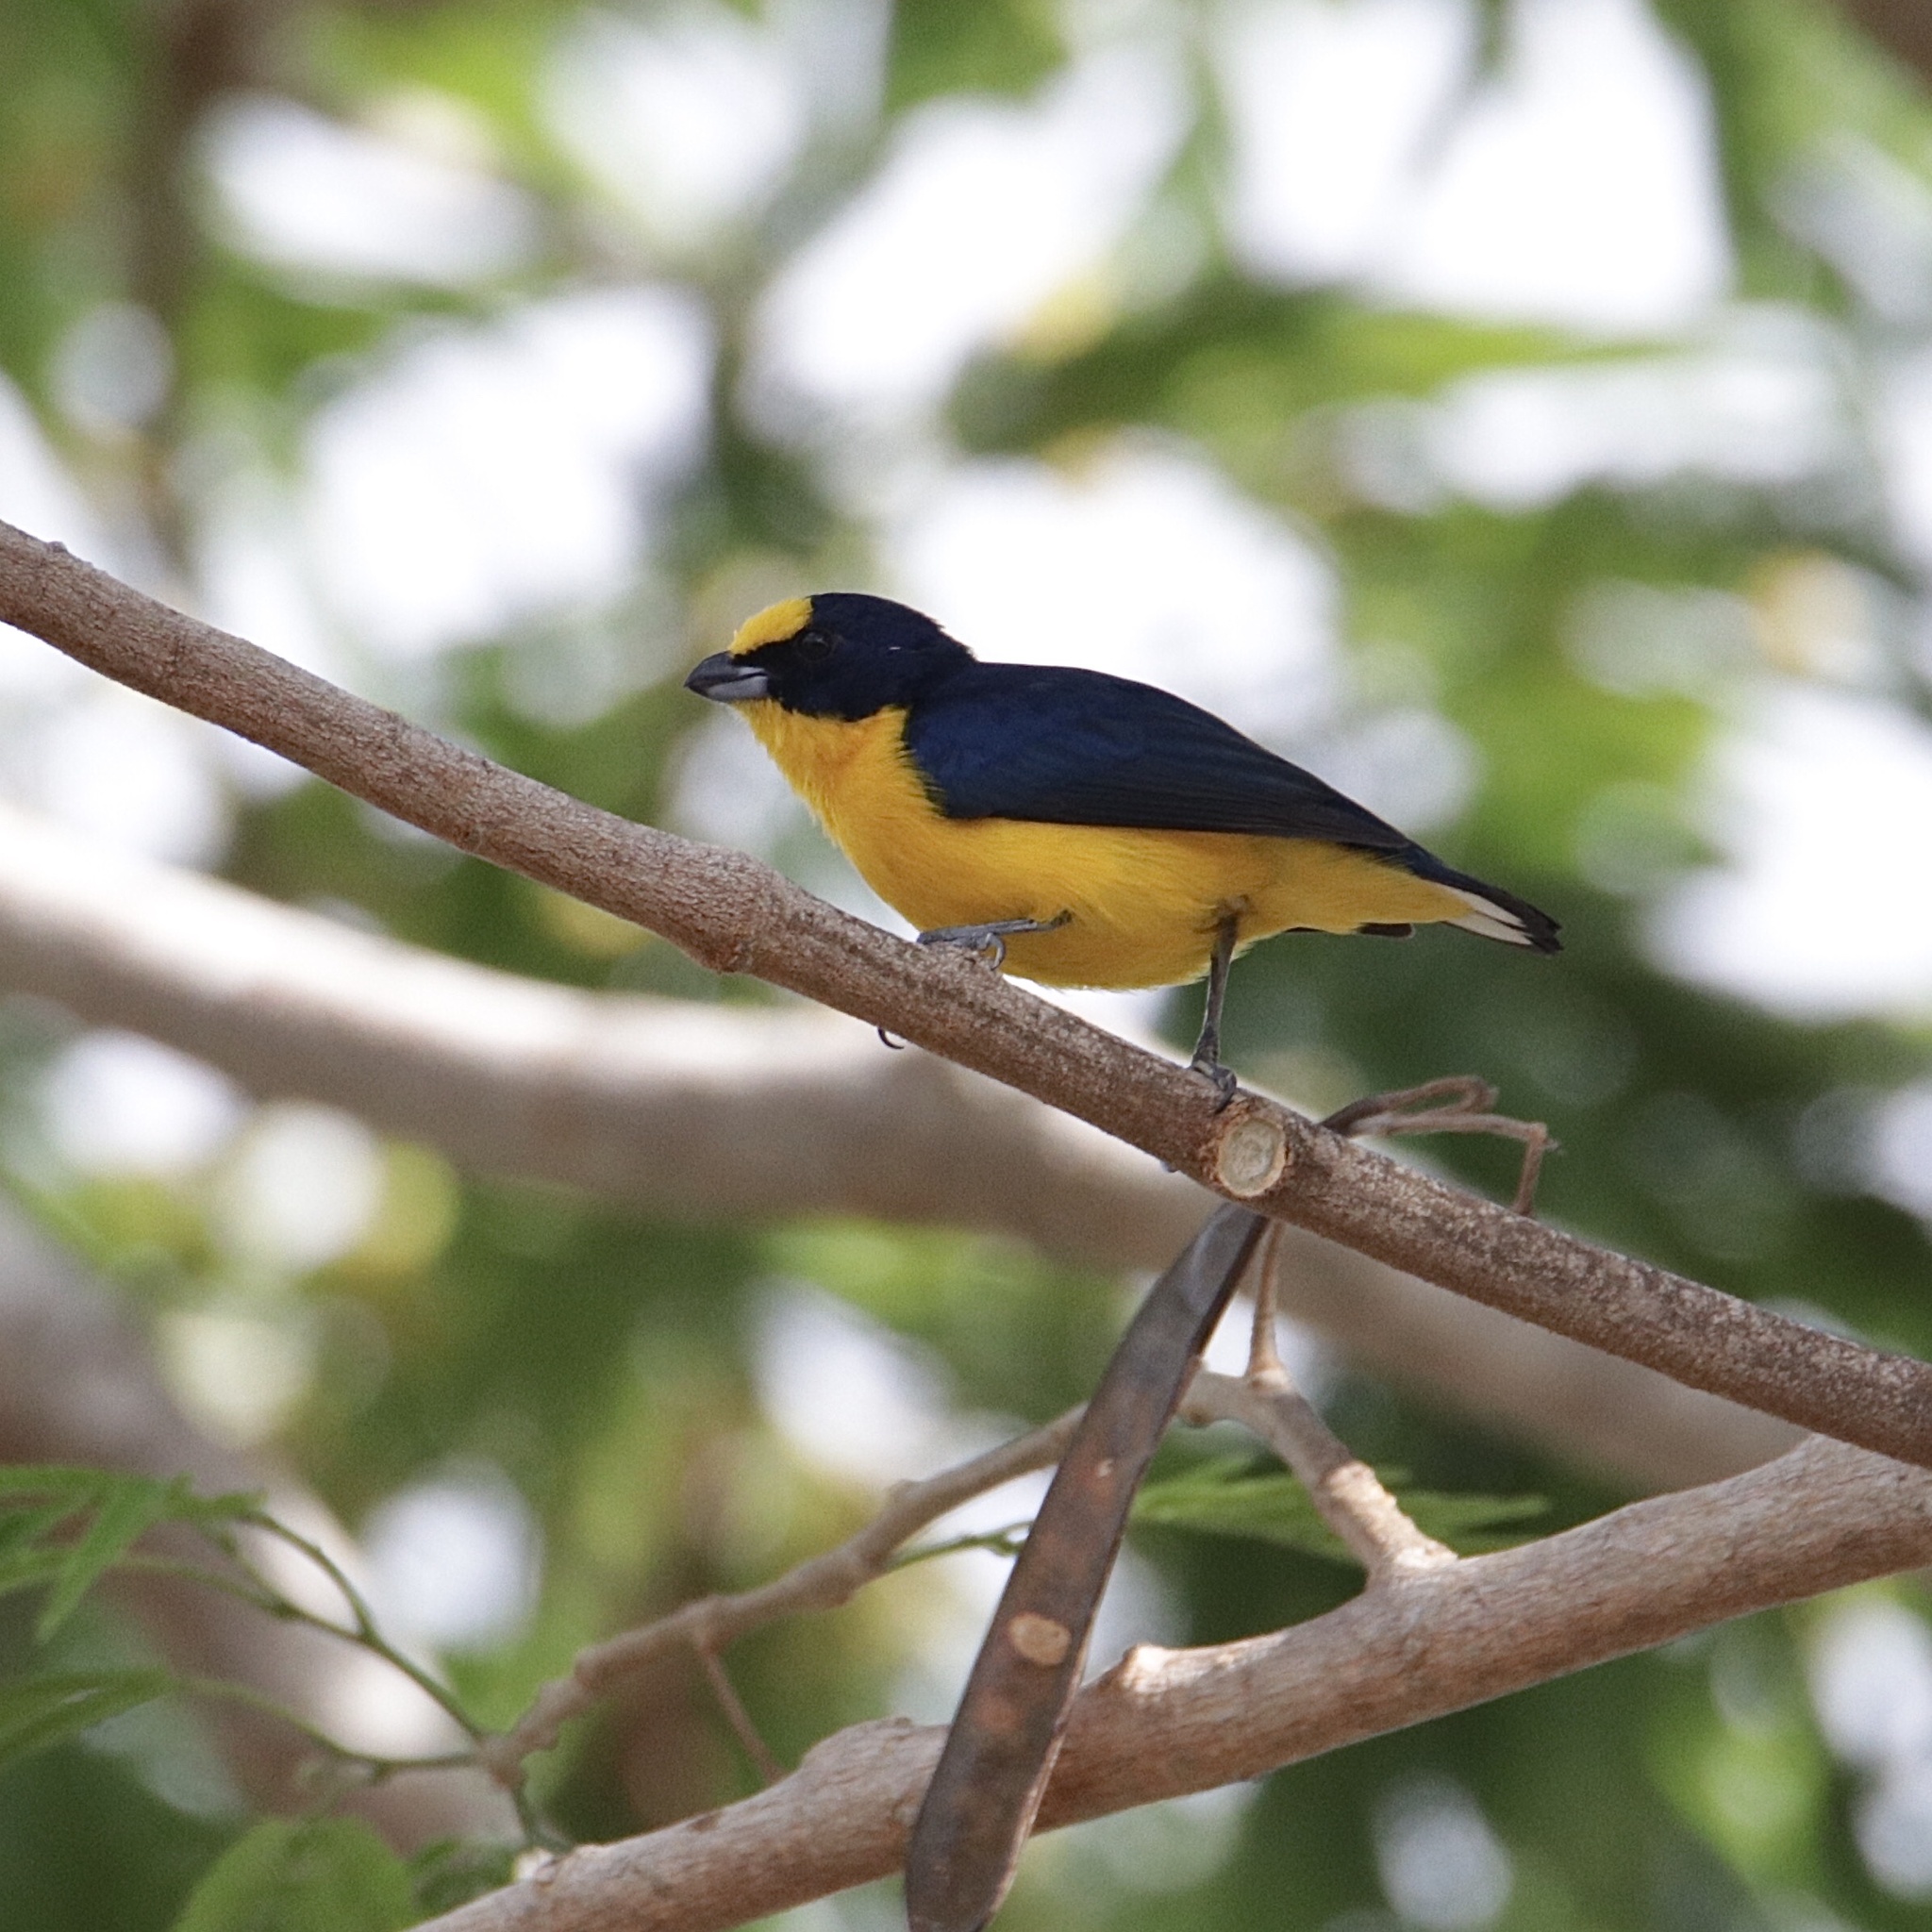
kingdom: Animalia
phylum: Chordata
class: Aves
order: Passeriformes
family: Fringillidae
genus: Euphonia
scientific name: Euphonia laniirostris
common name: Thick-billed euphonia
